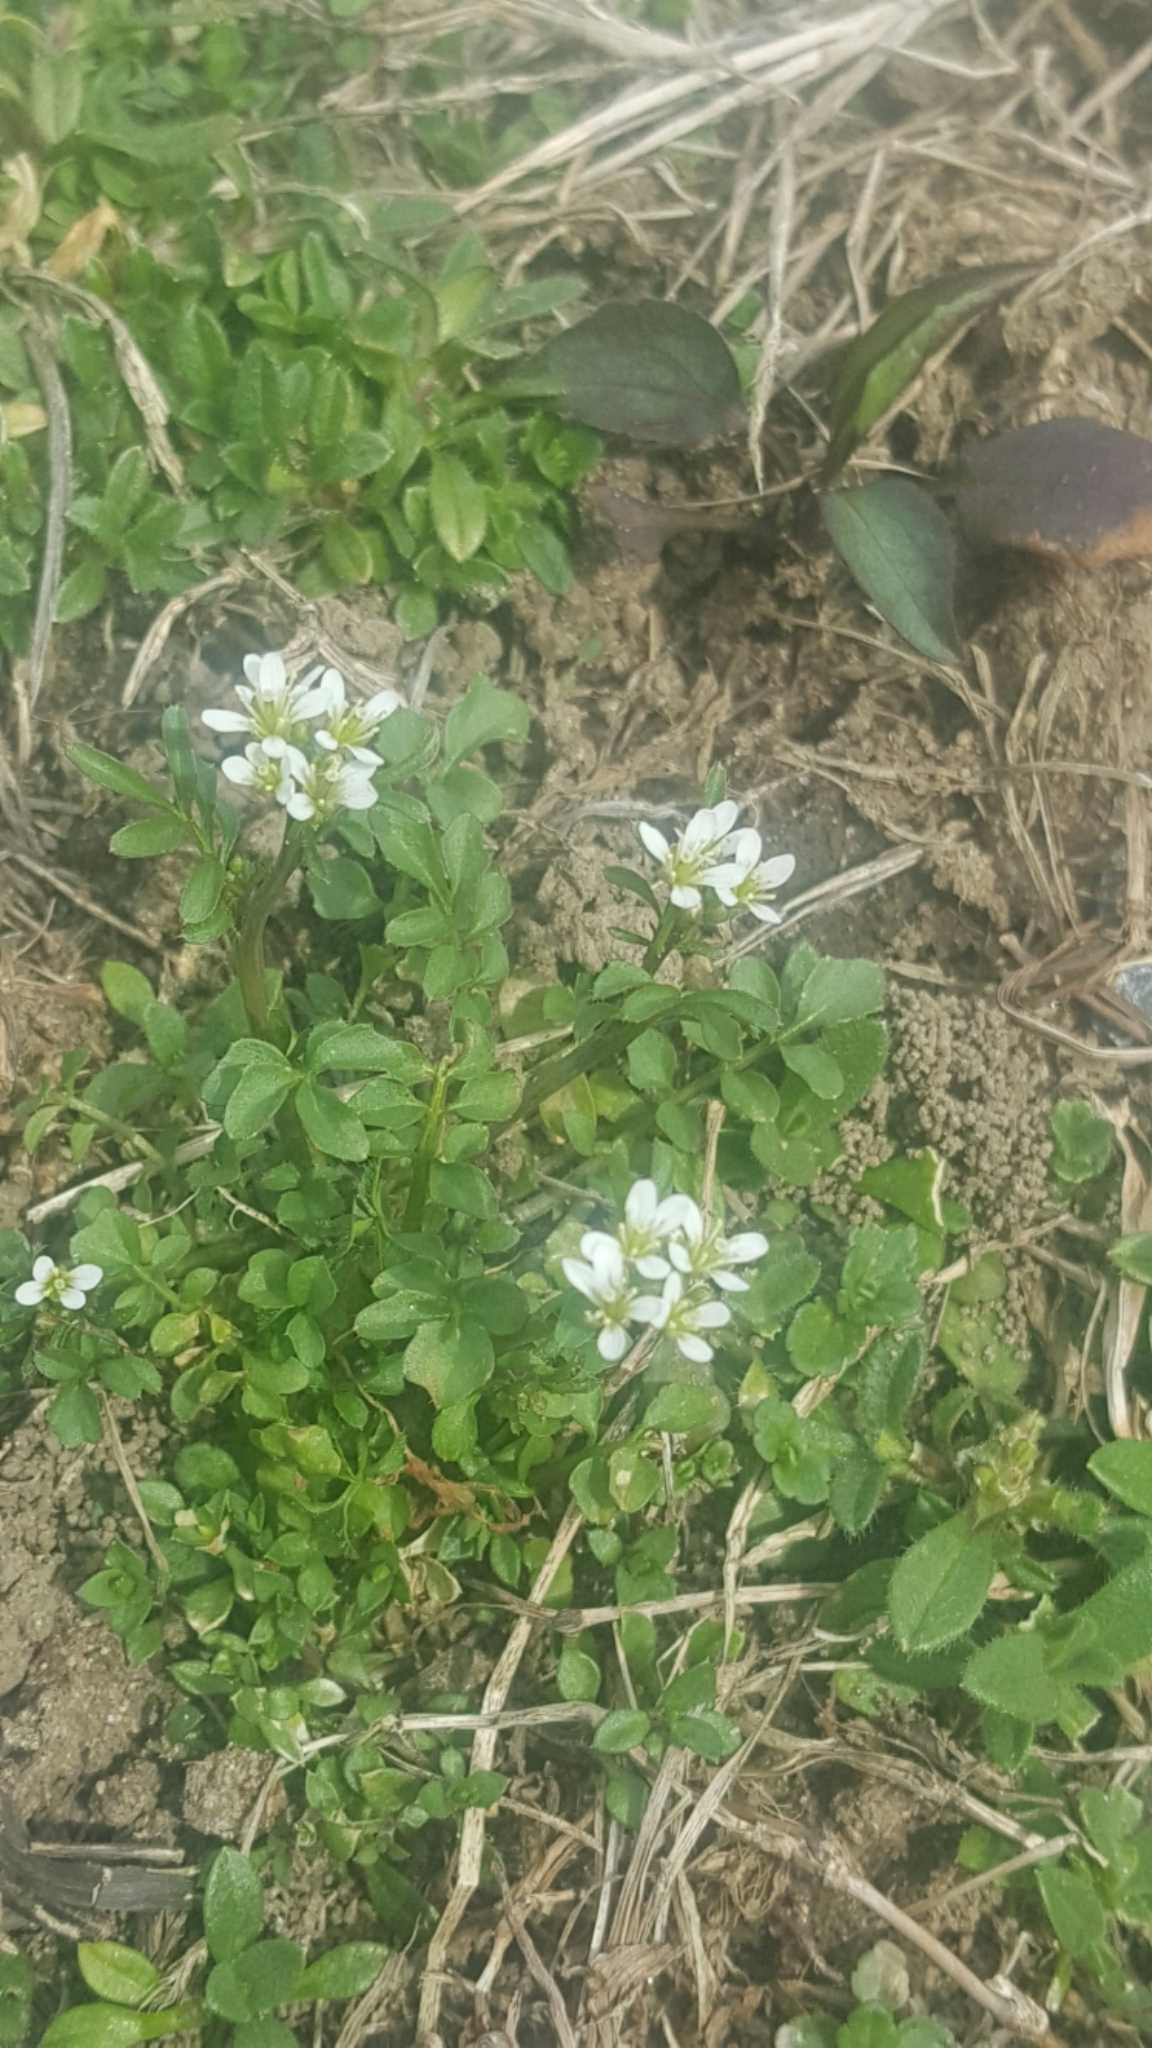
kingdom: Plantae
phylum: Tracheophyta
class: Magnoliopsida
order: Brassicales
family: Brassicaceae
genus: Cardamine
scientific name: Cardamine hirsuta
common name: Hairy bittercress
